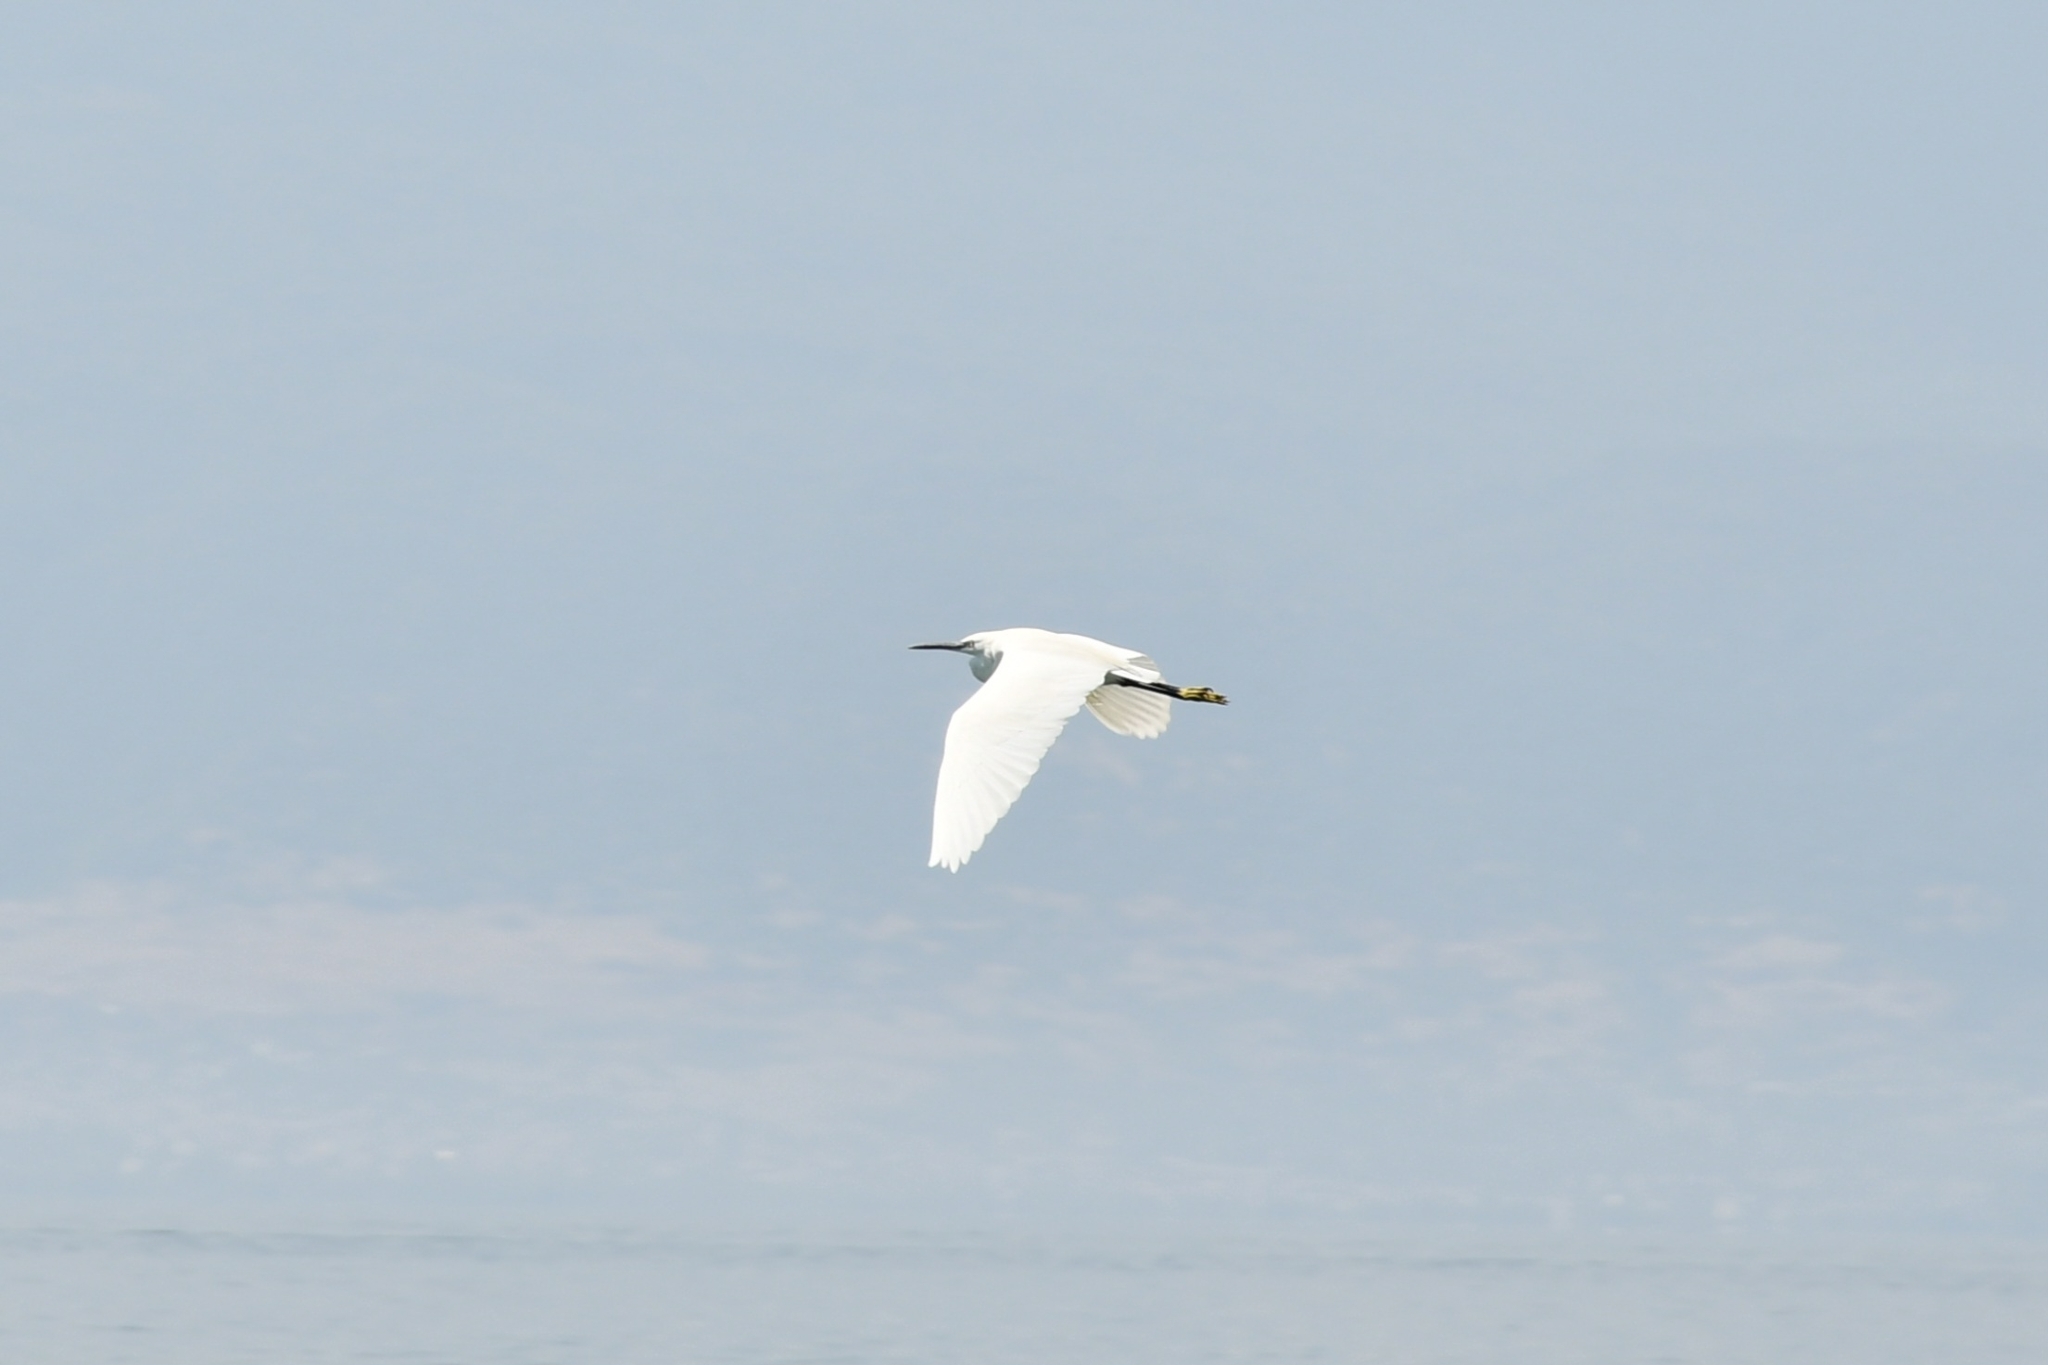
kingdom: Animalia
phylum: Chordata
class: Aves
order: Pelecaniformes
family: Ardeidae
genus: Egretta
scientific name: Egretta garzetta
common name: Little egret
